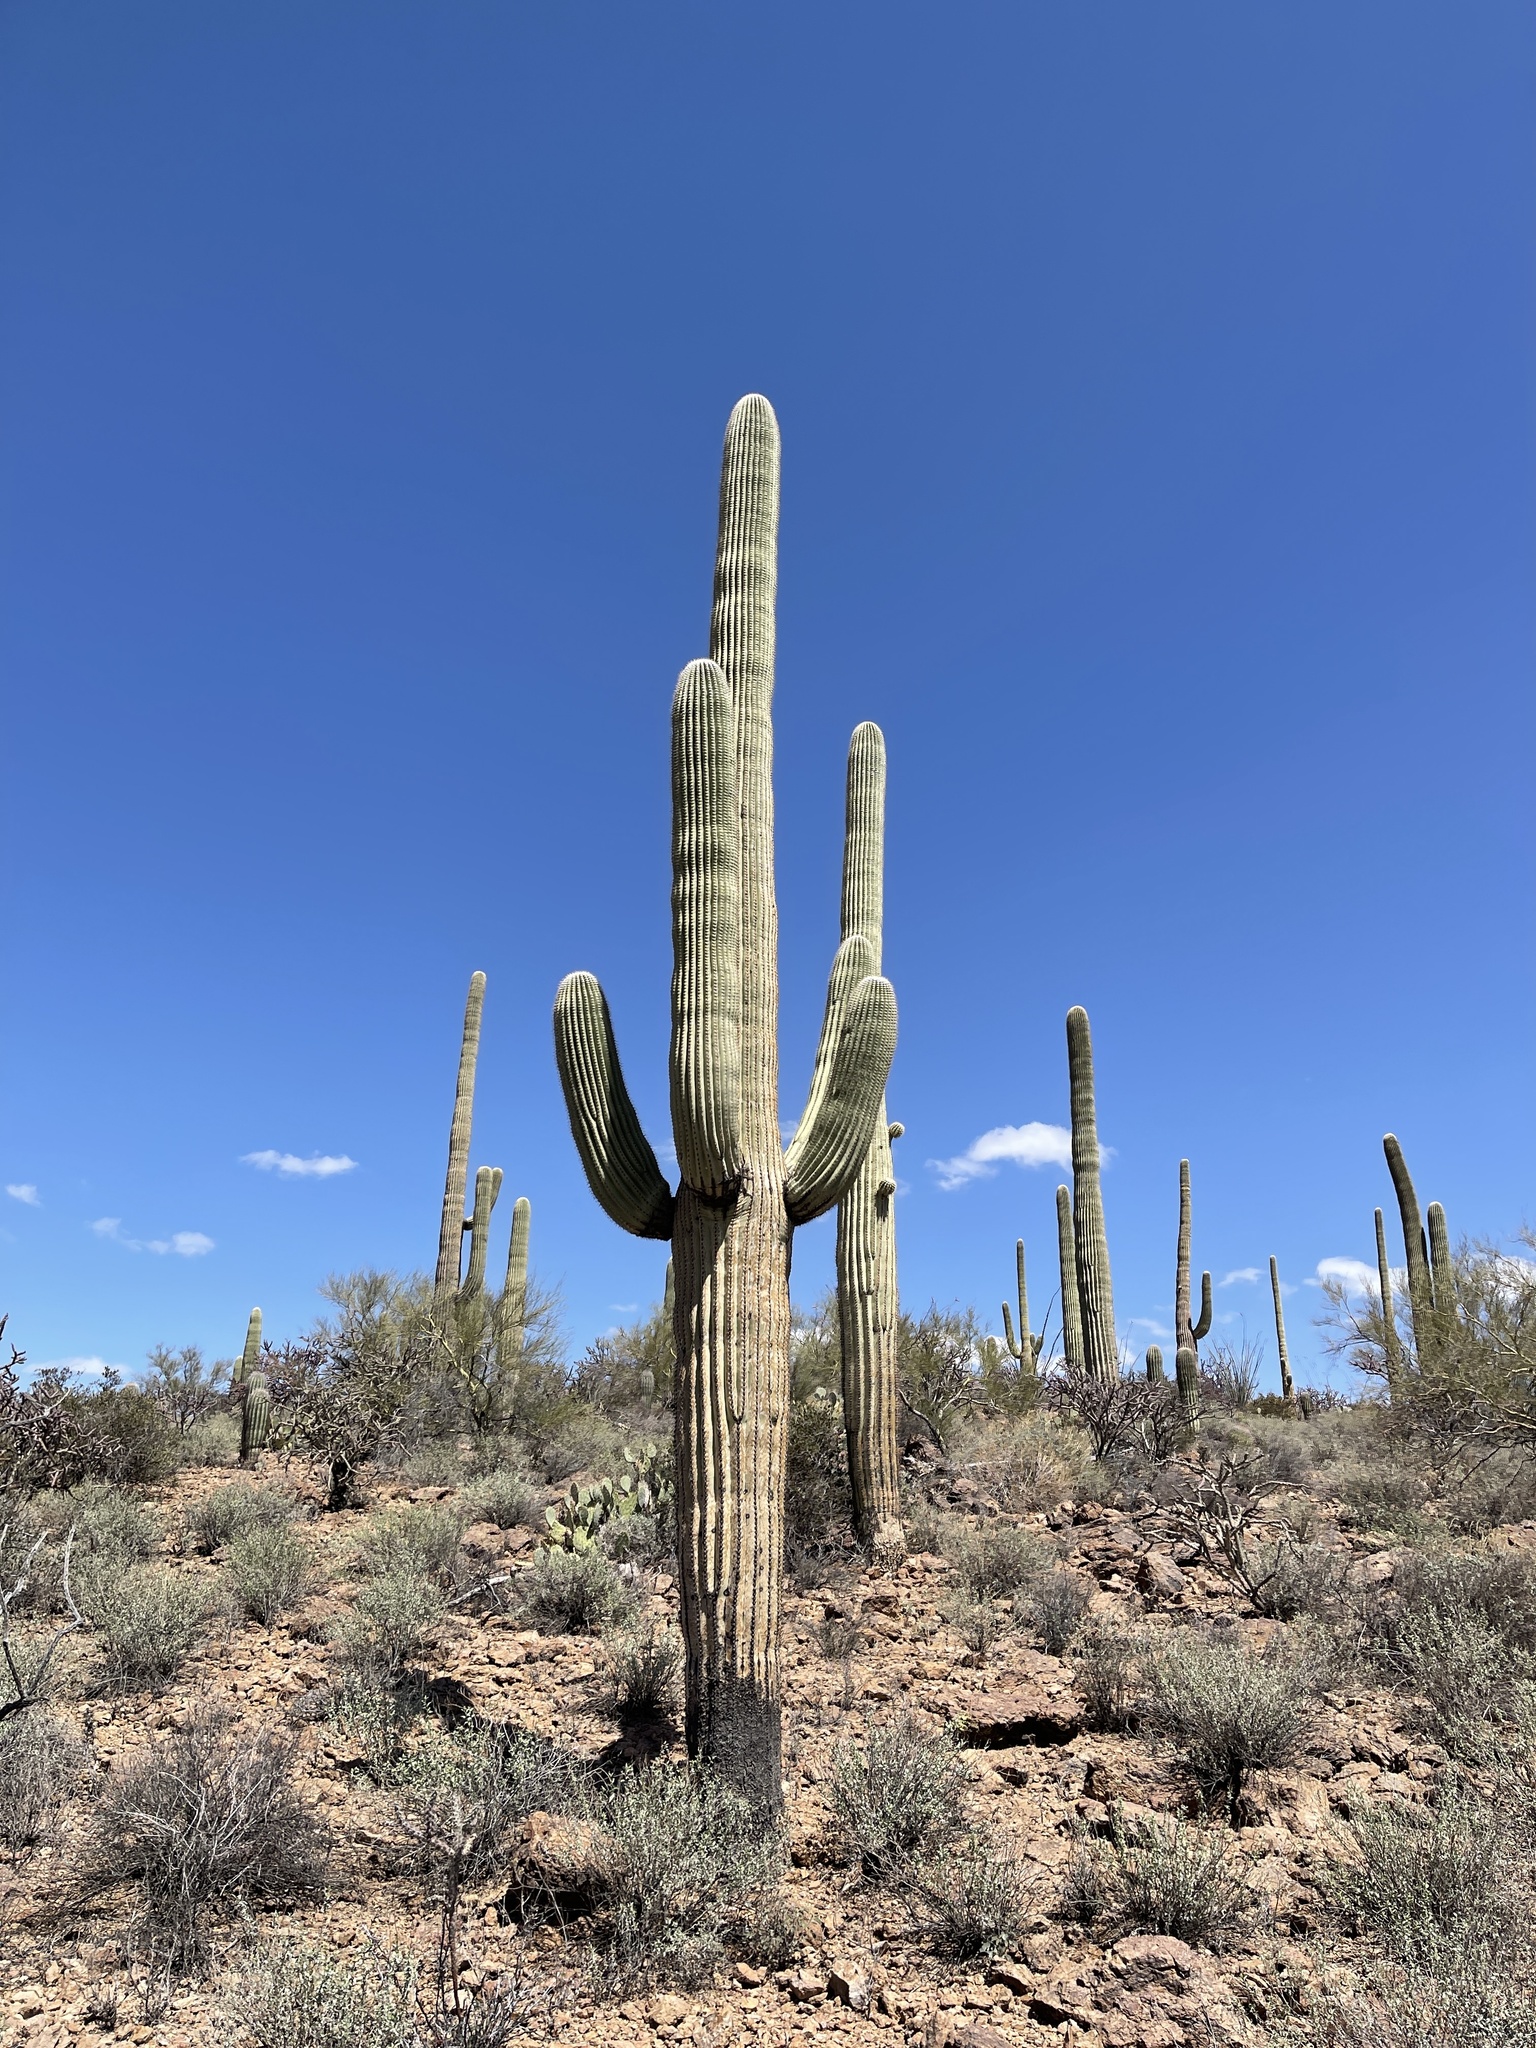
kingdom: Plantae
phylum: Tracheophyta
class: Magnoliopsida
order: Caryophyllales
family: Cactaceae
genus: Carnegiea
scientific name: Carnegiea gigantea
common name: Saguaro
